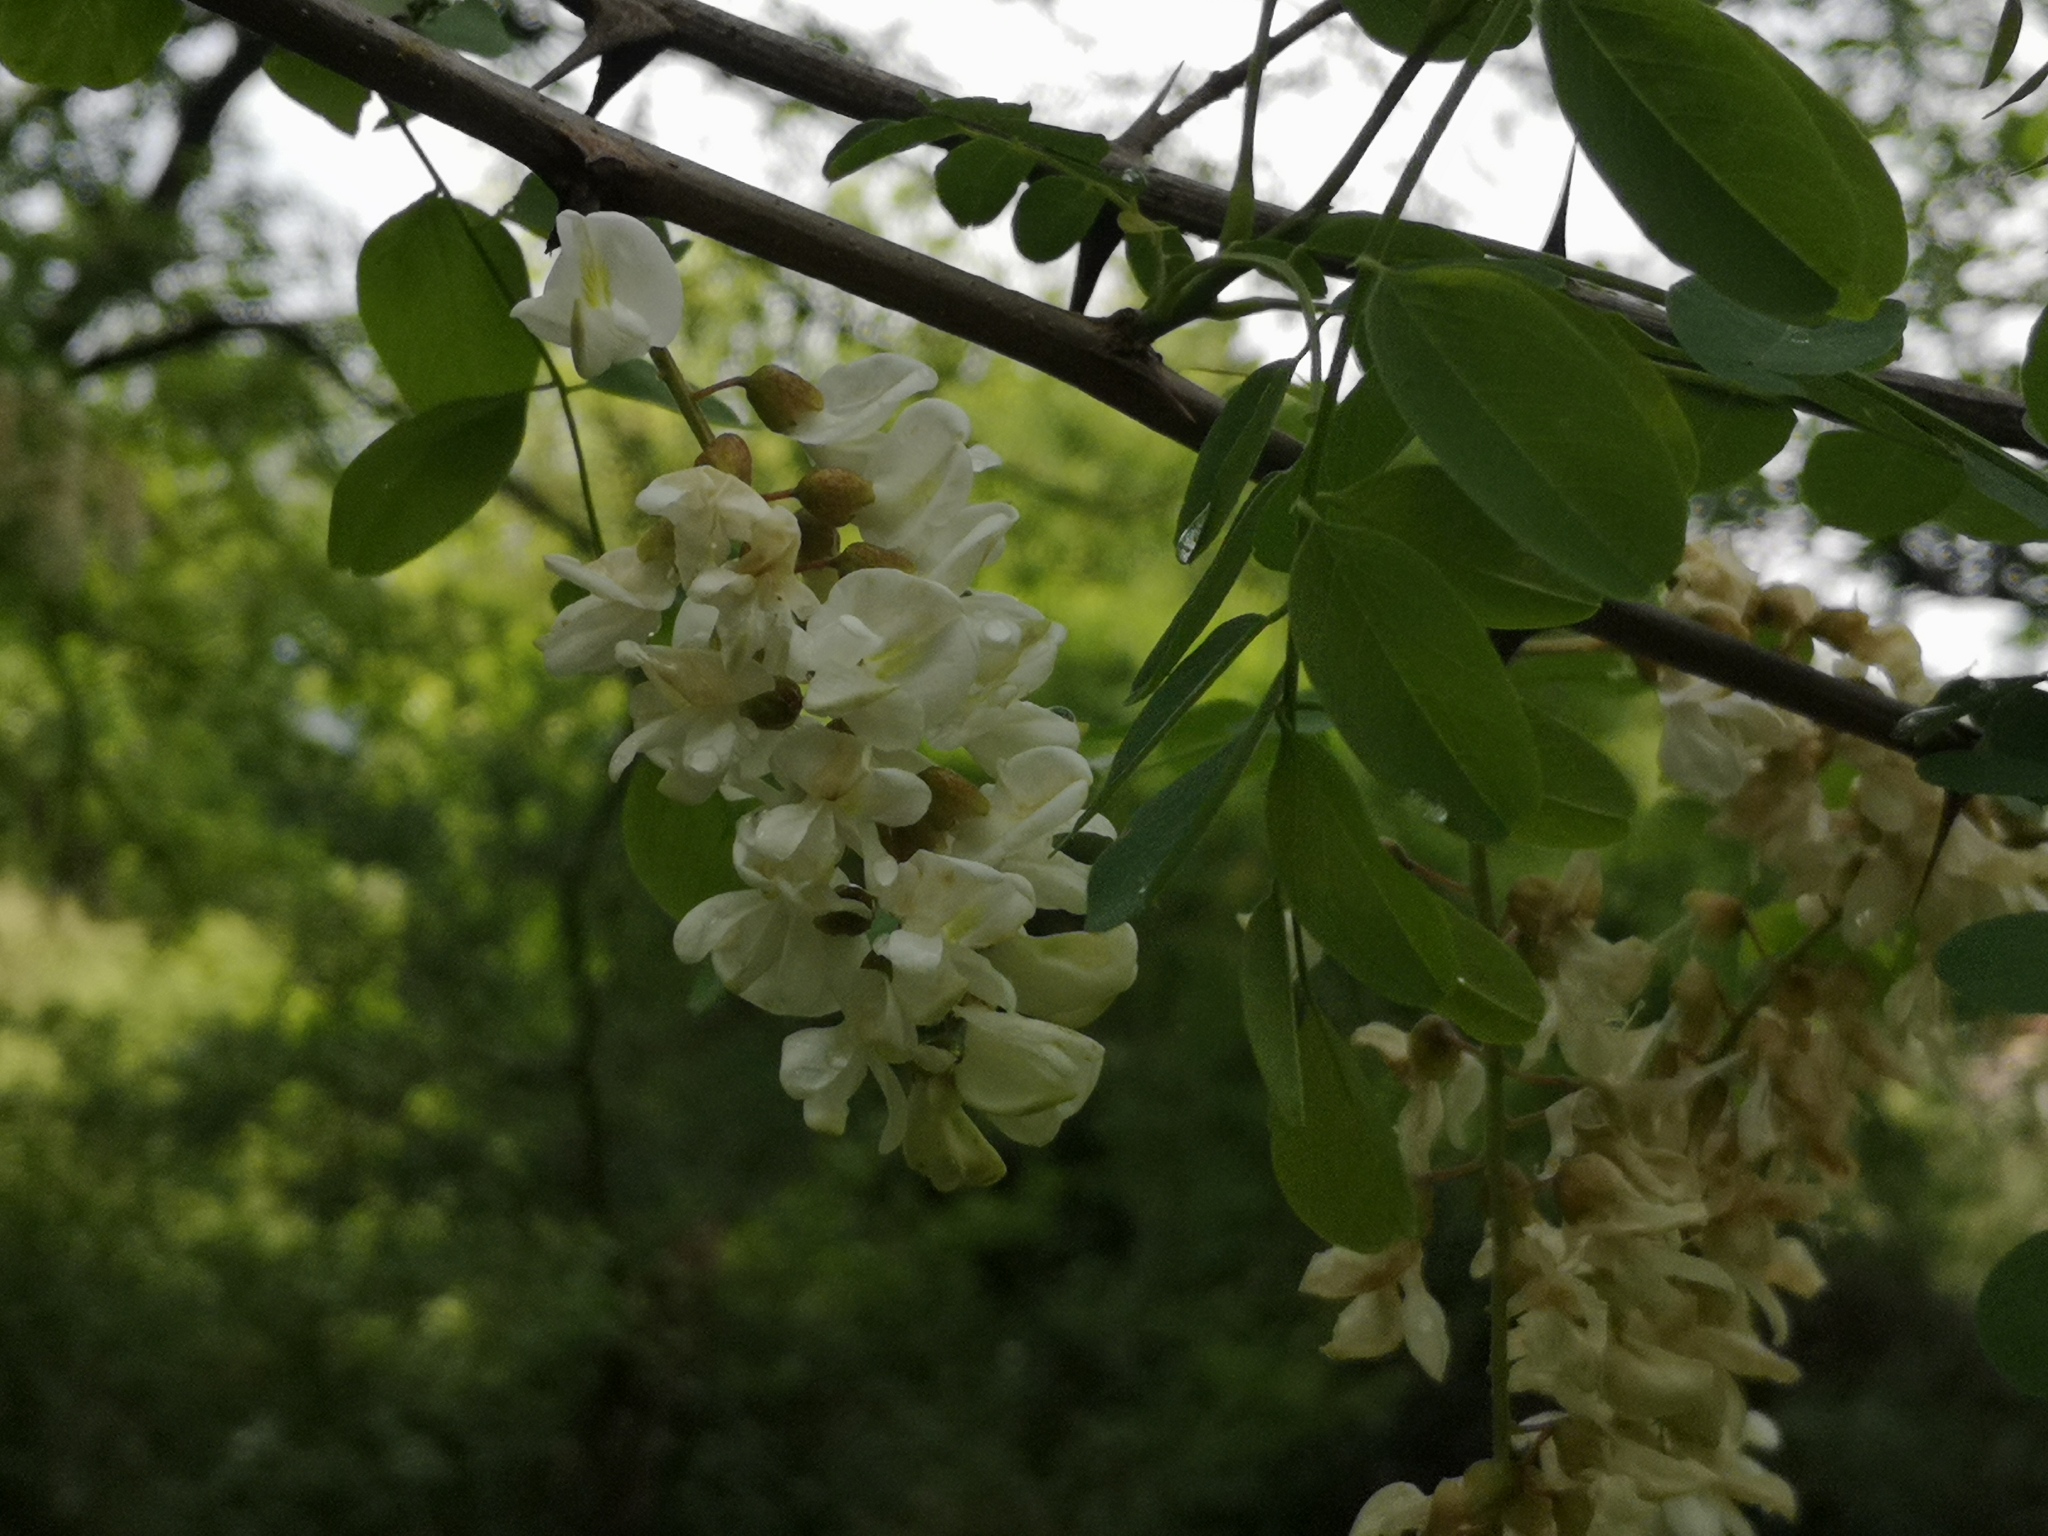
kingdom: Plantae
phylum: Tracheophyta
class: Magnoliopsida
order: Fabales
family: Fabaceae
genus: Robinia
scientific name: Robinia pseudoacacia
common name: Black locust
